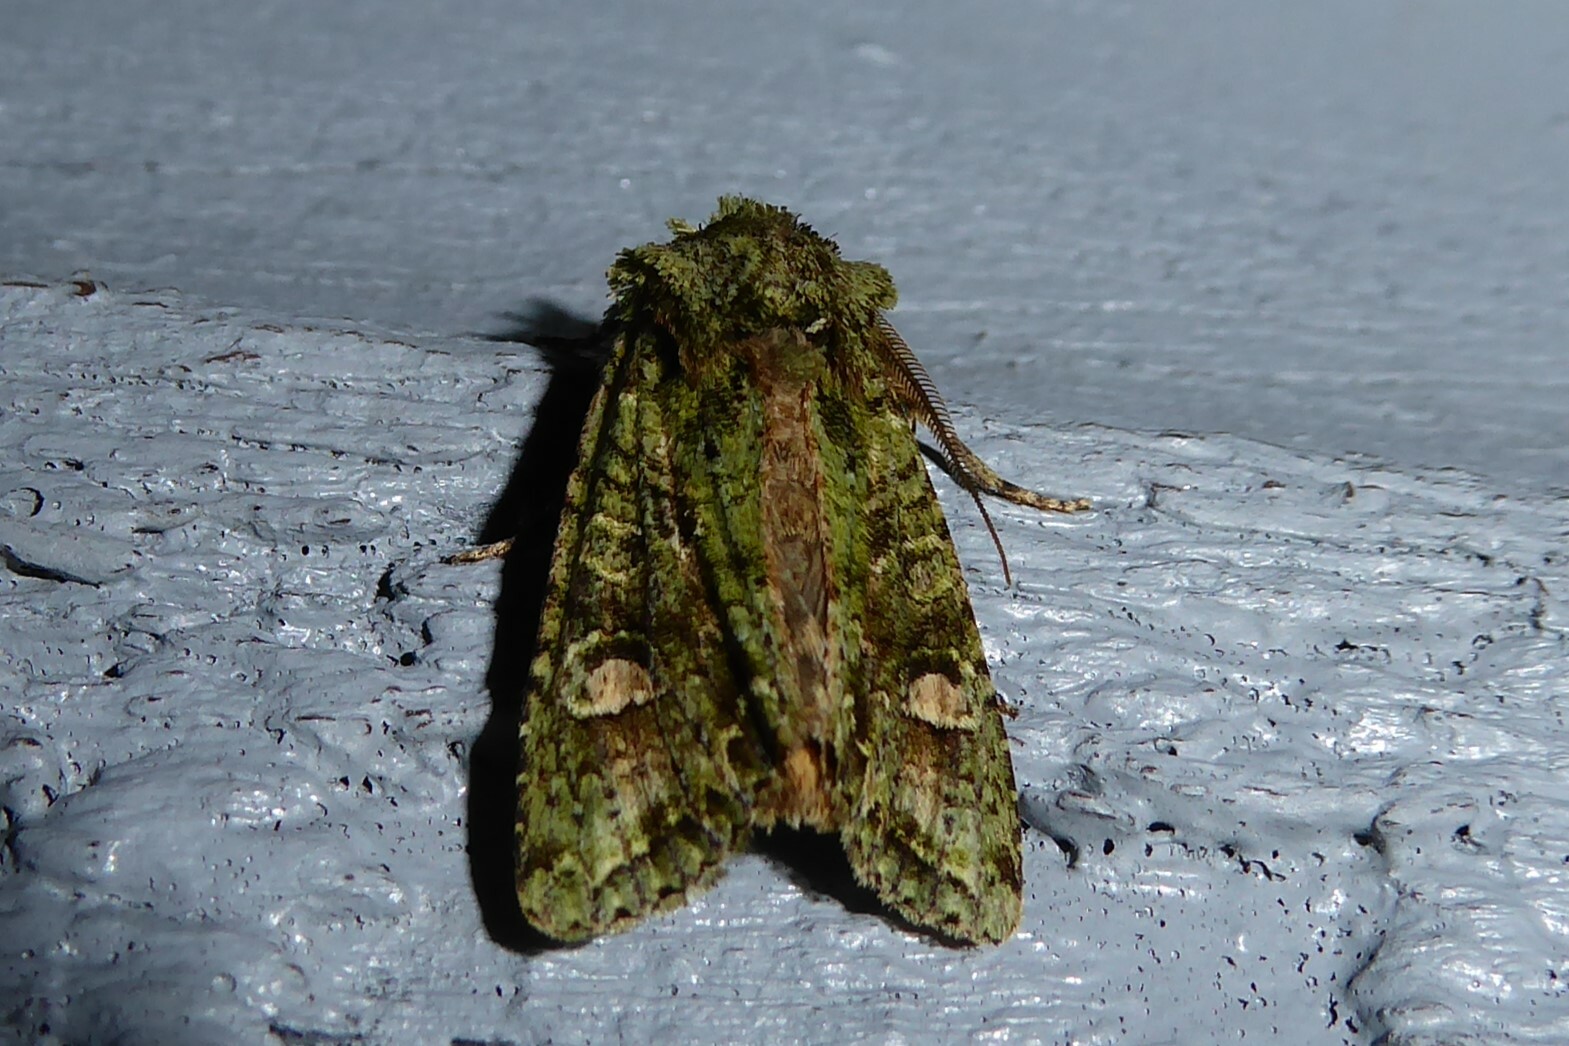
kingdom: Animalia
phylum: Arthropoda
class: Insecta
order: Lepidoptera
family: Noctuidae
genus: Ichneutica
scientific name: Ichneutica
